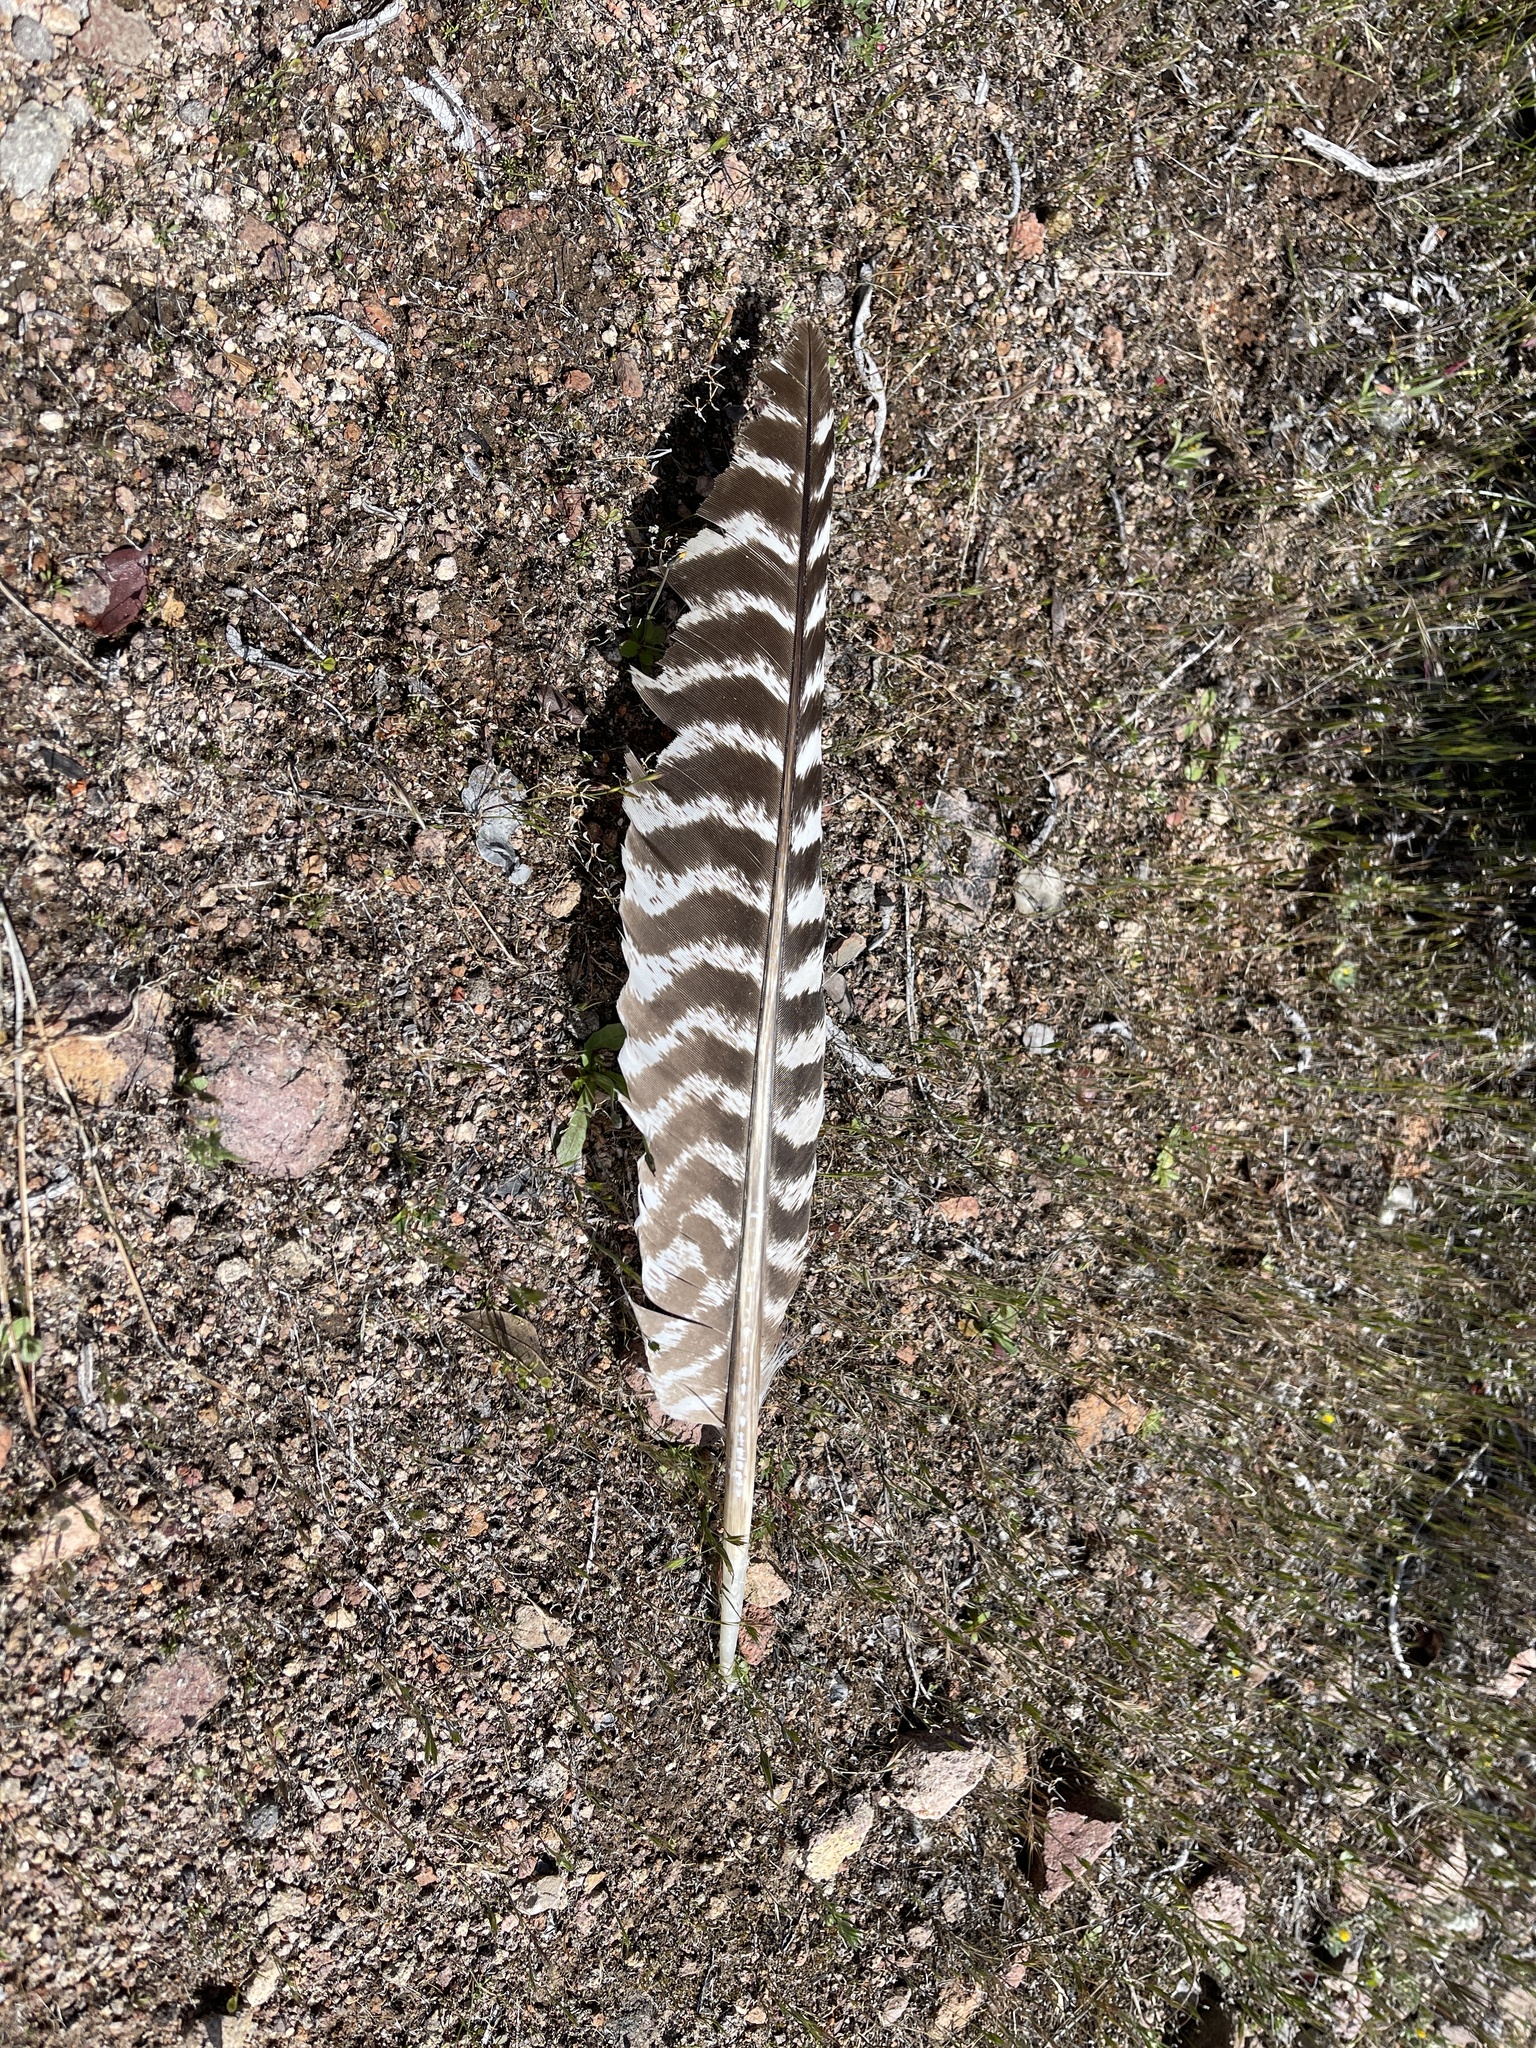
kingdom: Animalia
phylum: Chordata
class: Aves
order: Galliformes
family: Phasianidae
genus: Meleagris
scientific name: Meleagris gallopavo
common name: Wild turkey
